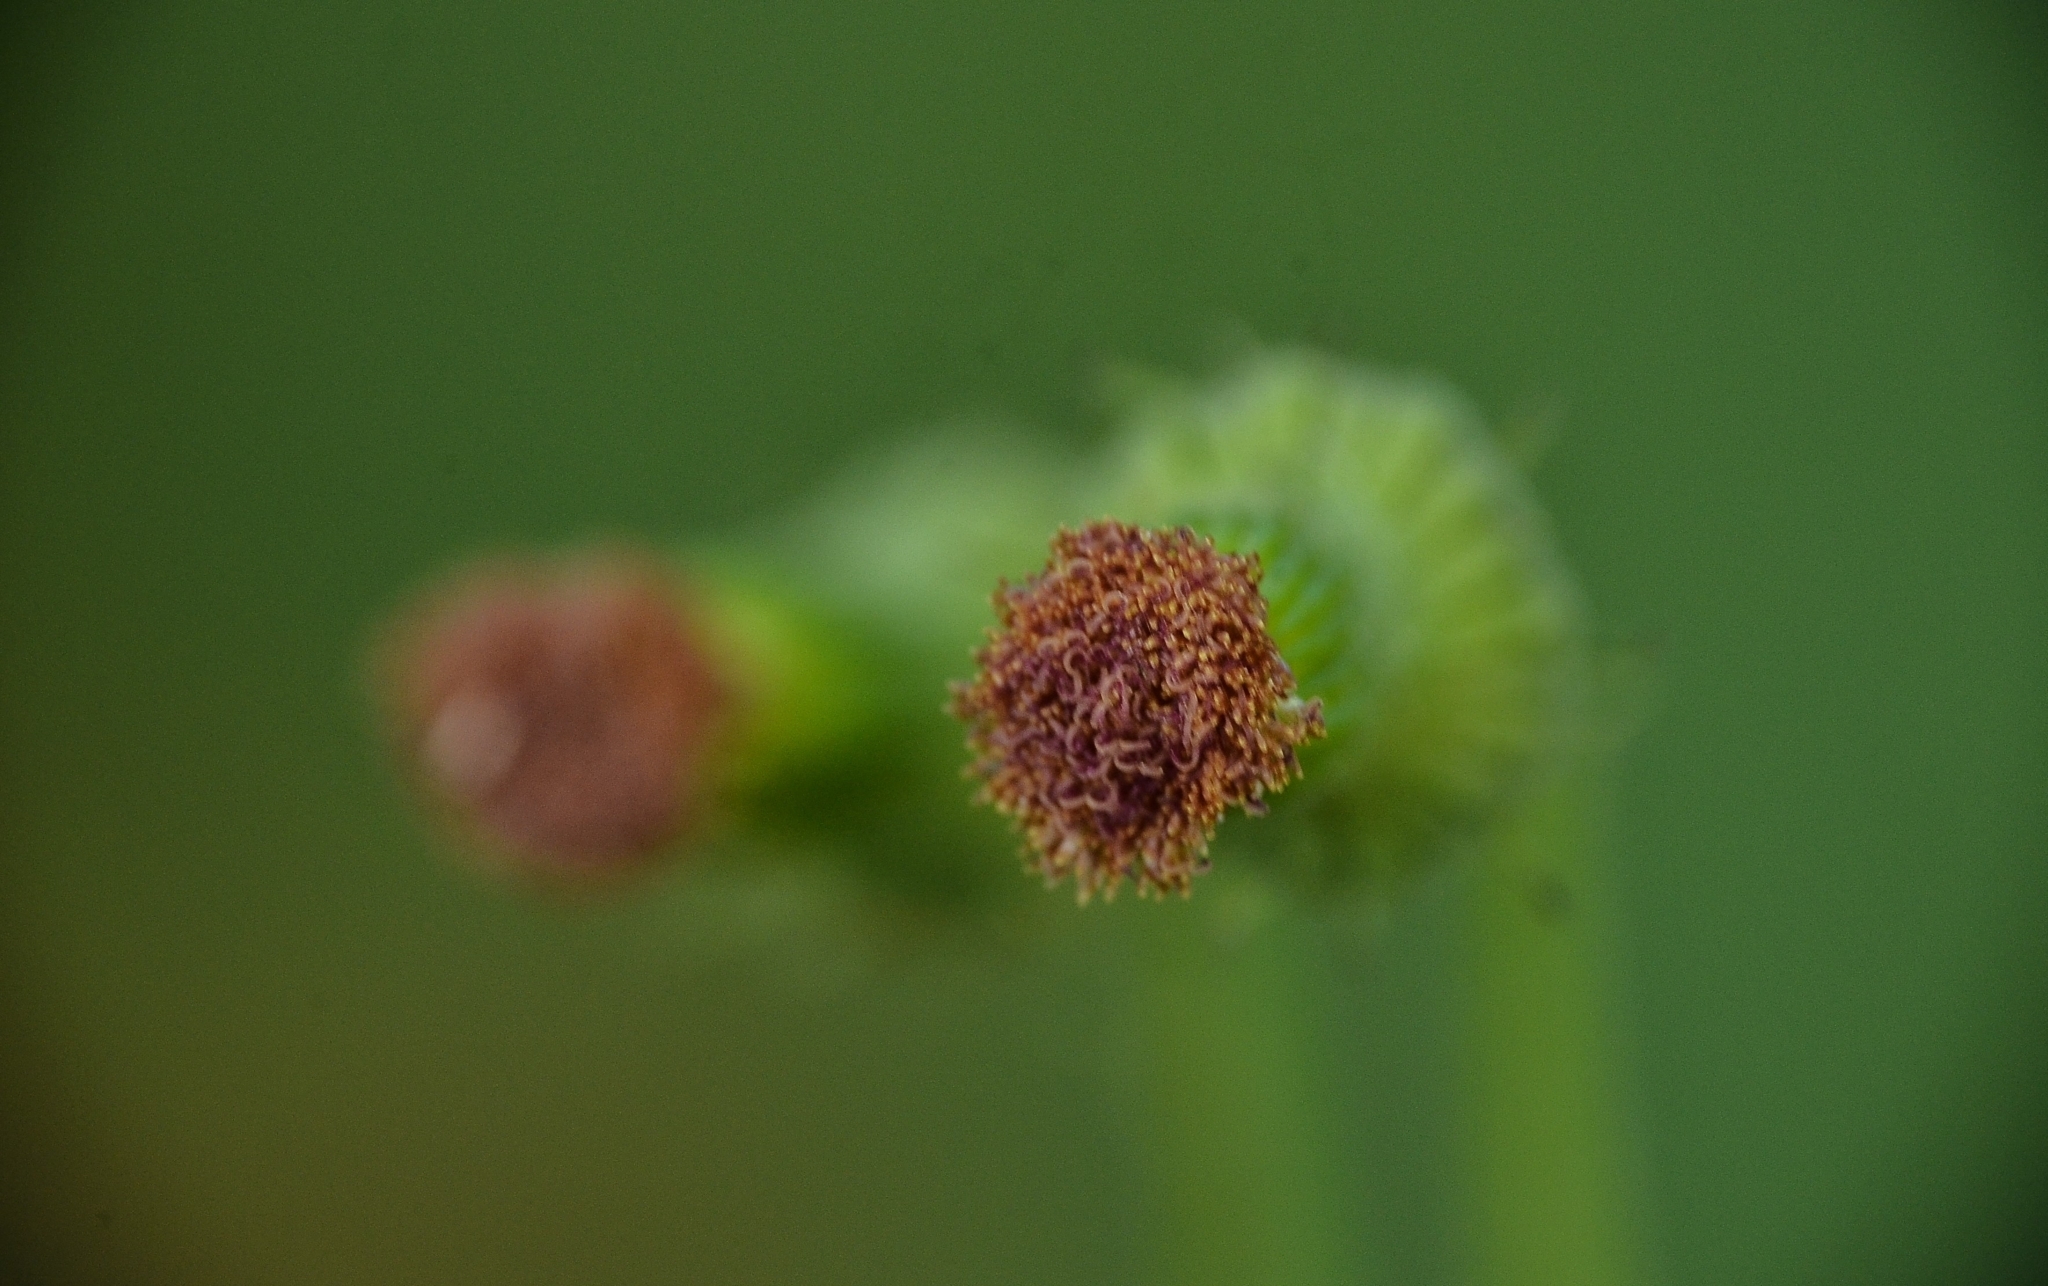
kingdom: Plantae
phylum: Tracheophyta
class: Magnoliopsida
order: Asterales
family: Asteraceae
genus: Crassocephalum
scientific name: Crassocephalum crepidioides
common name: Redflower ragleaf
